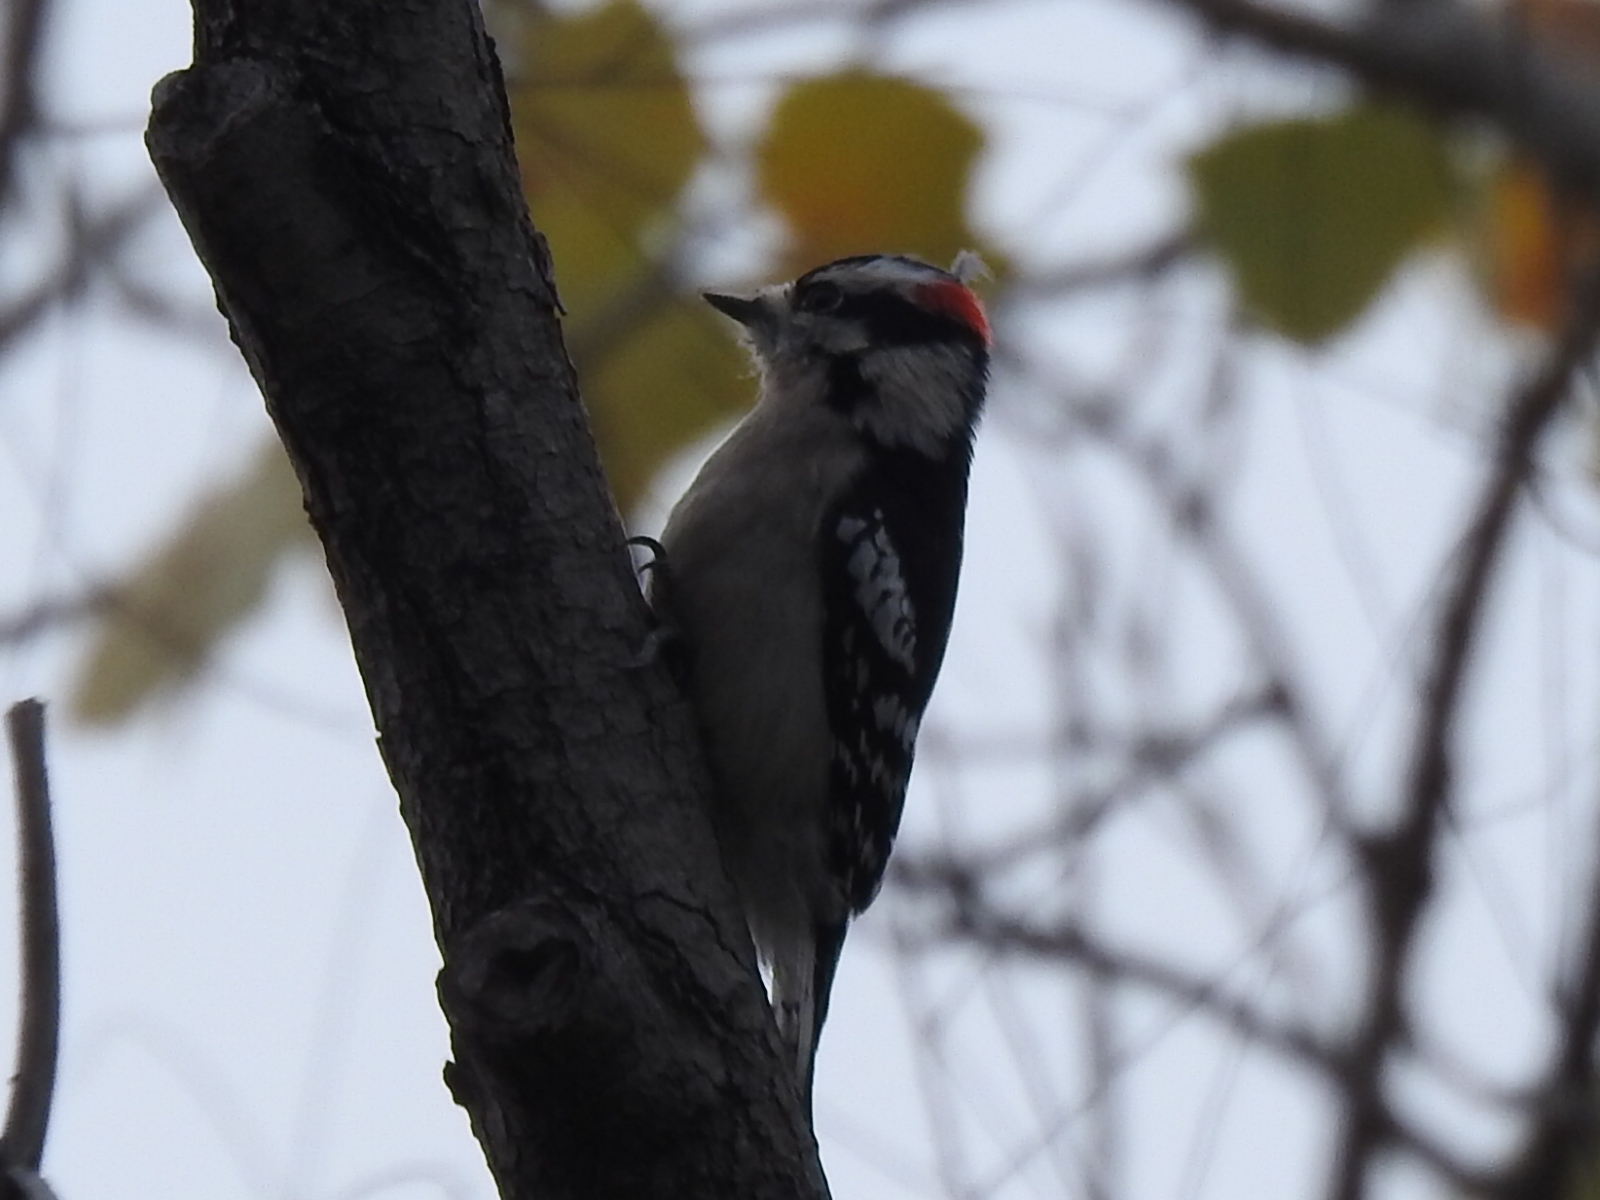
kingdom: Animalia
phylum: Chordata
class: Aves
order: Piciformes
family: Picidae
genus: Dryobates
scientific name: Dryobates pubescens
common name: Downy woodpecker
